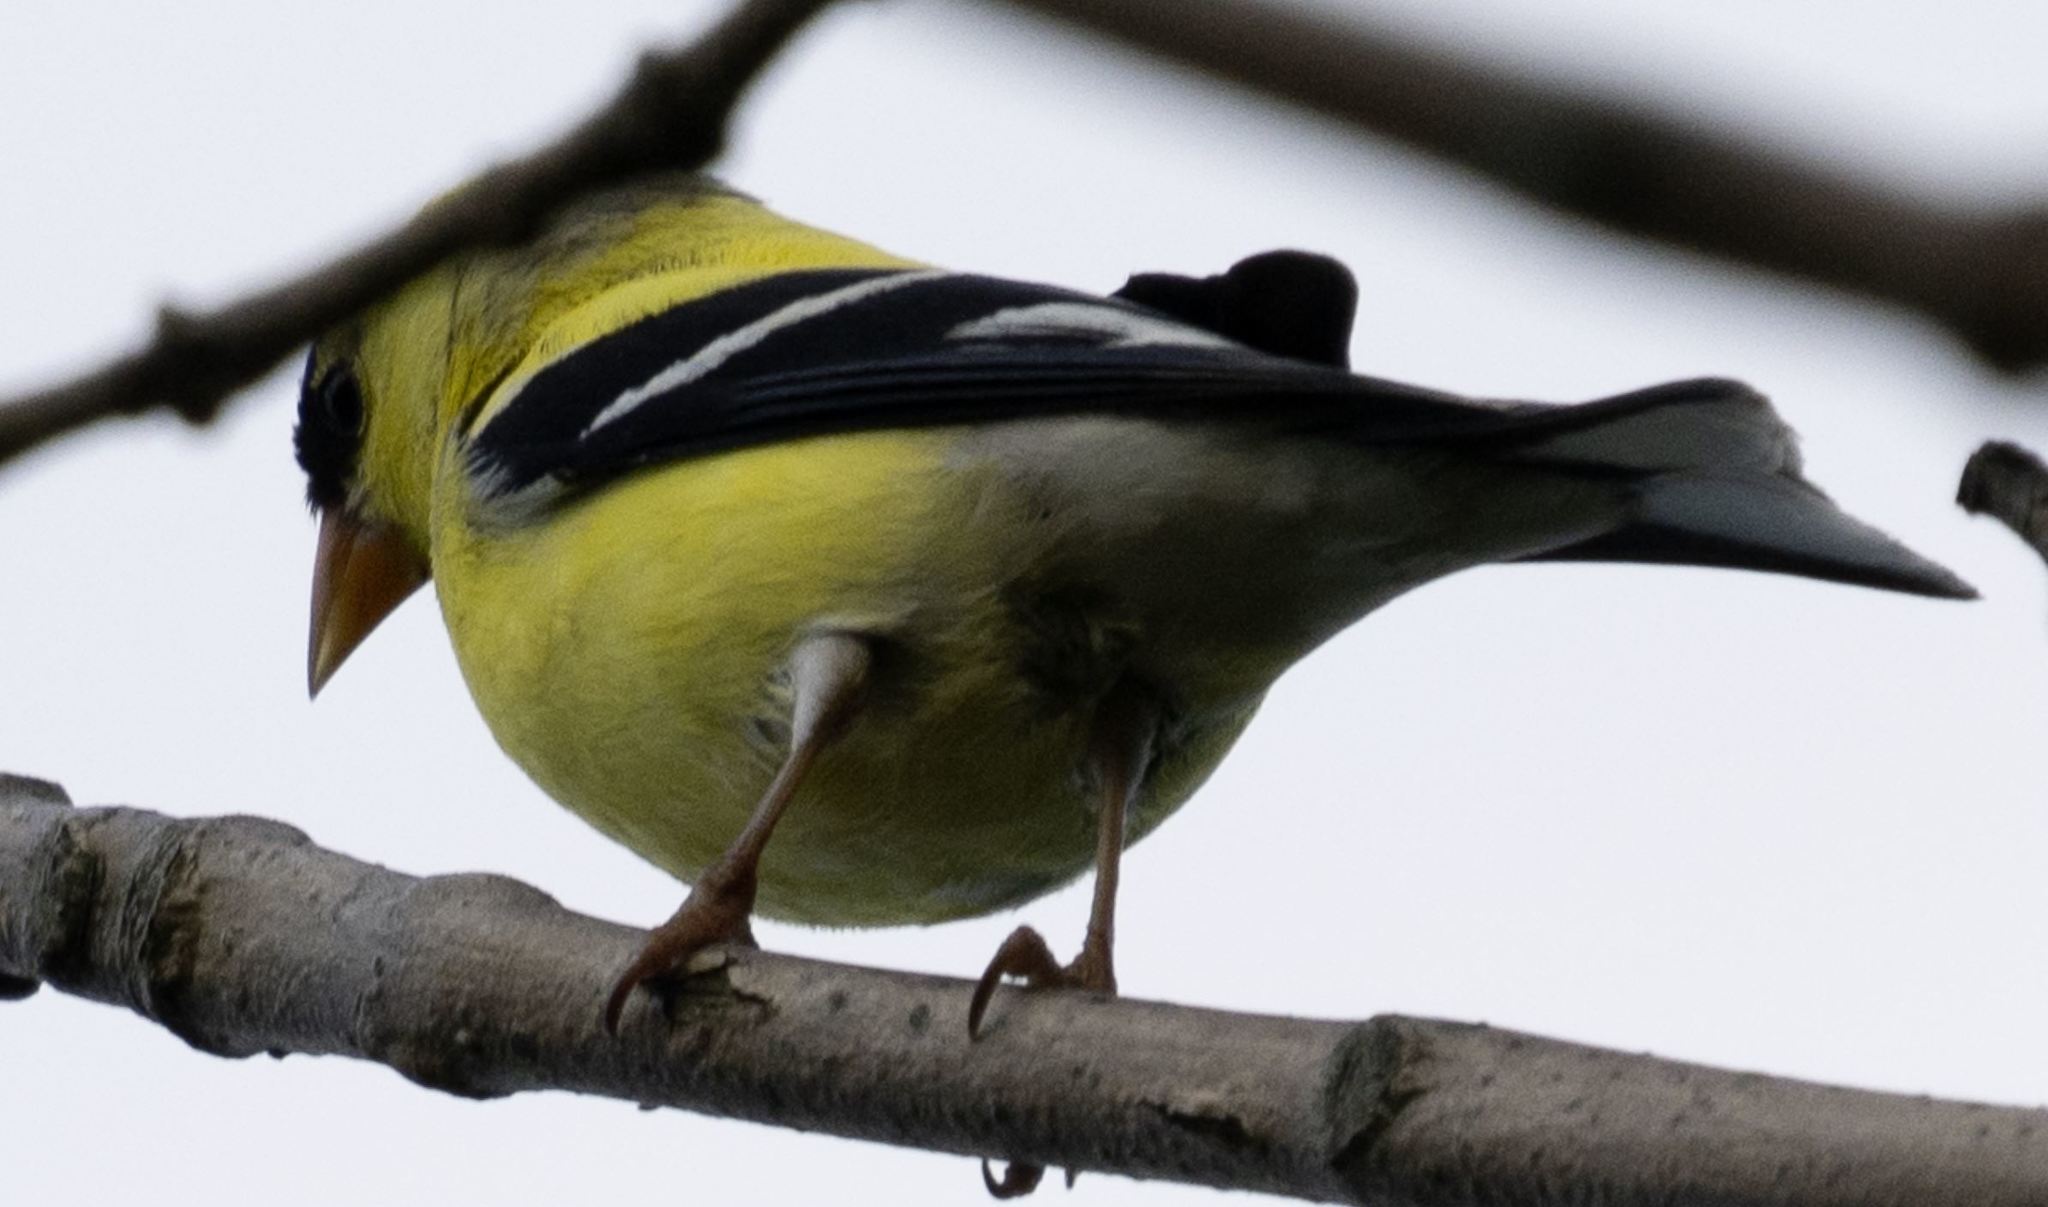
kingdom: Animalia
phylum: Chordata
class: Aves
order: Passeriformes
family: Fringillidae
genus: Spinus
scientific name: Spinus tristis
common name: American goldfinch
